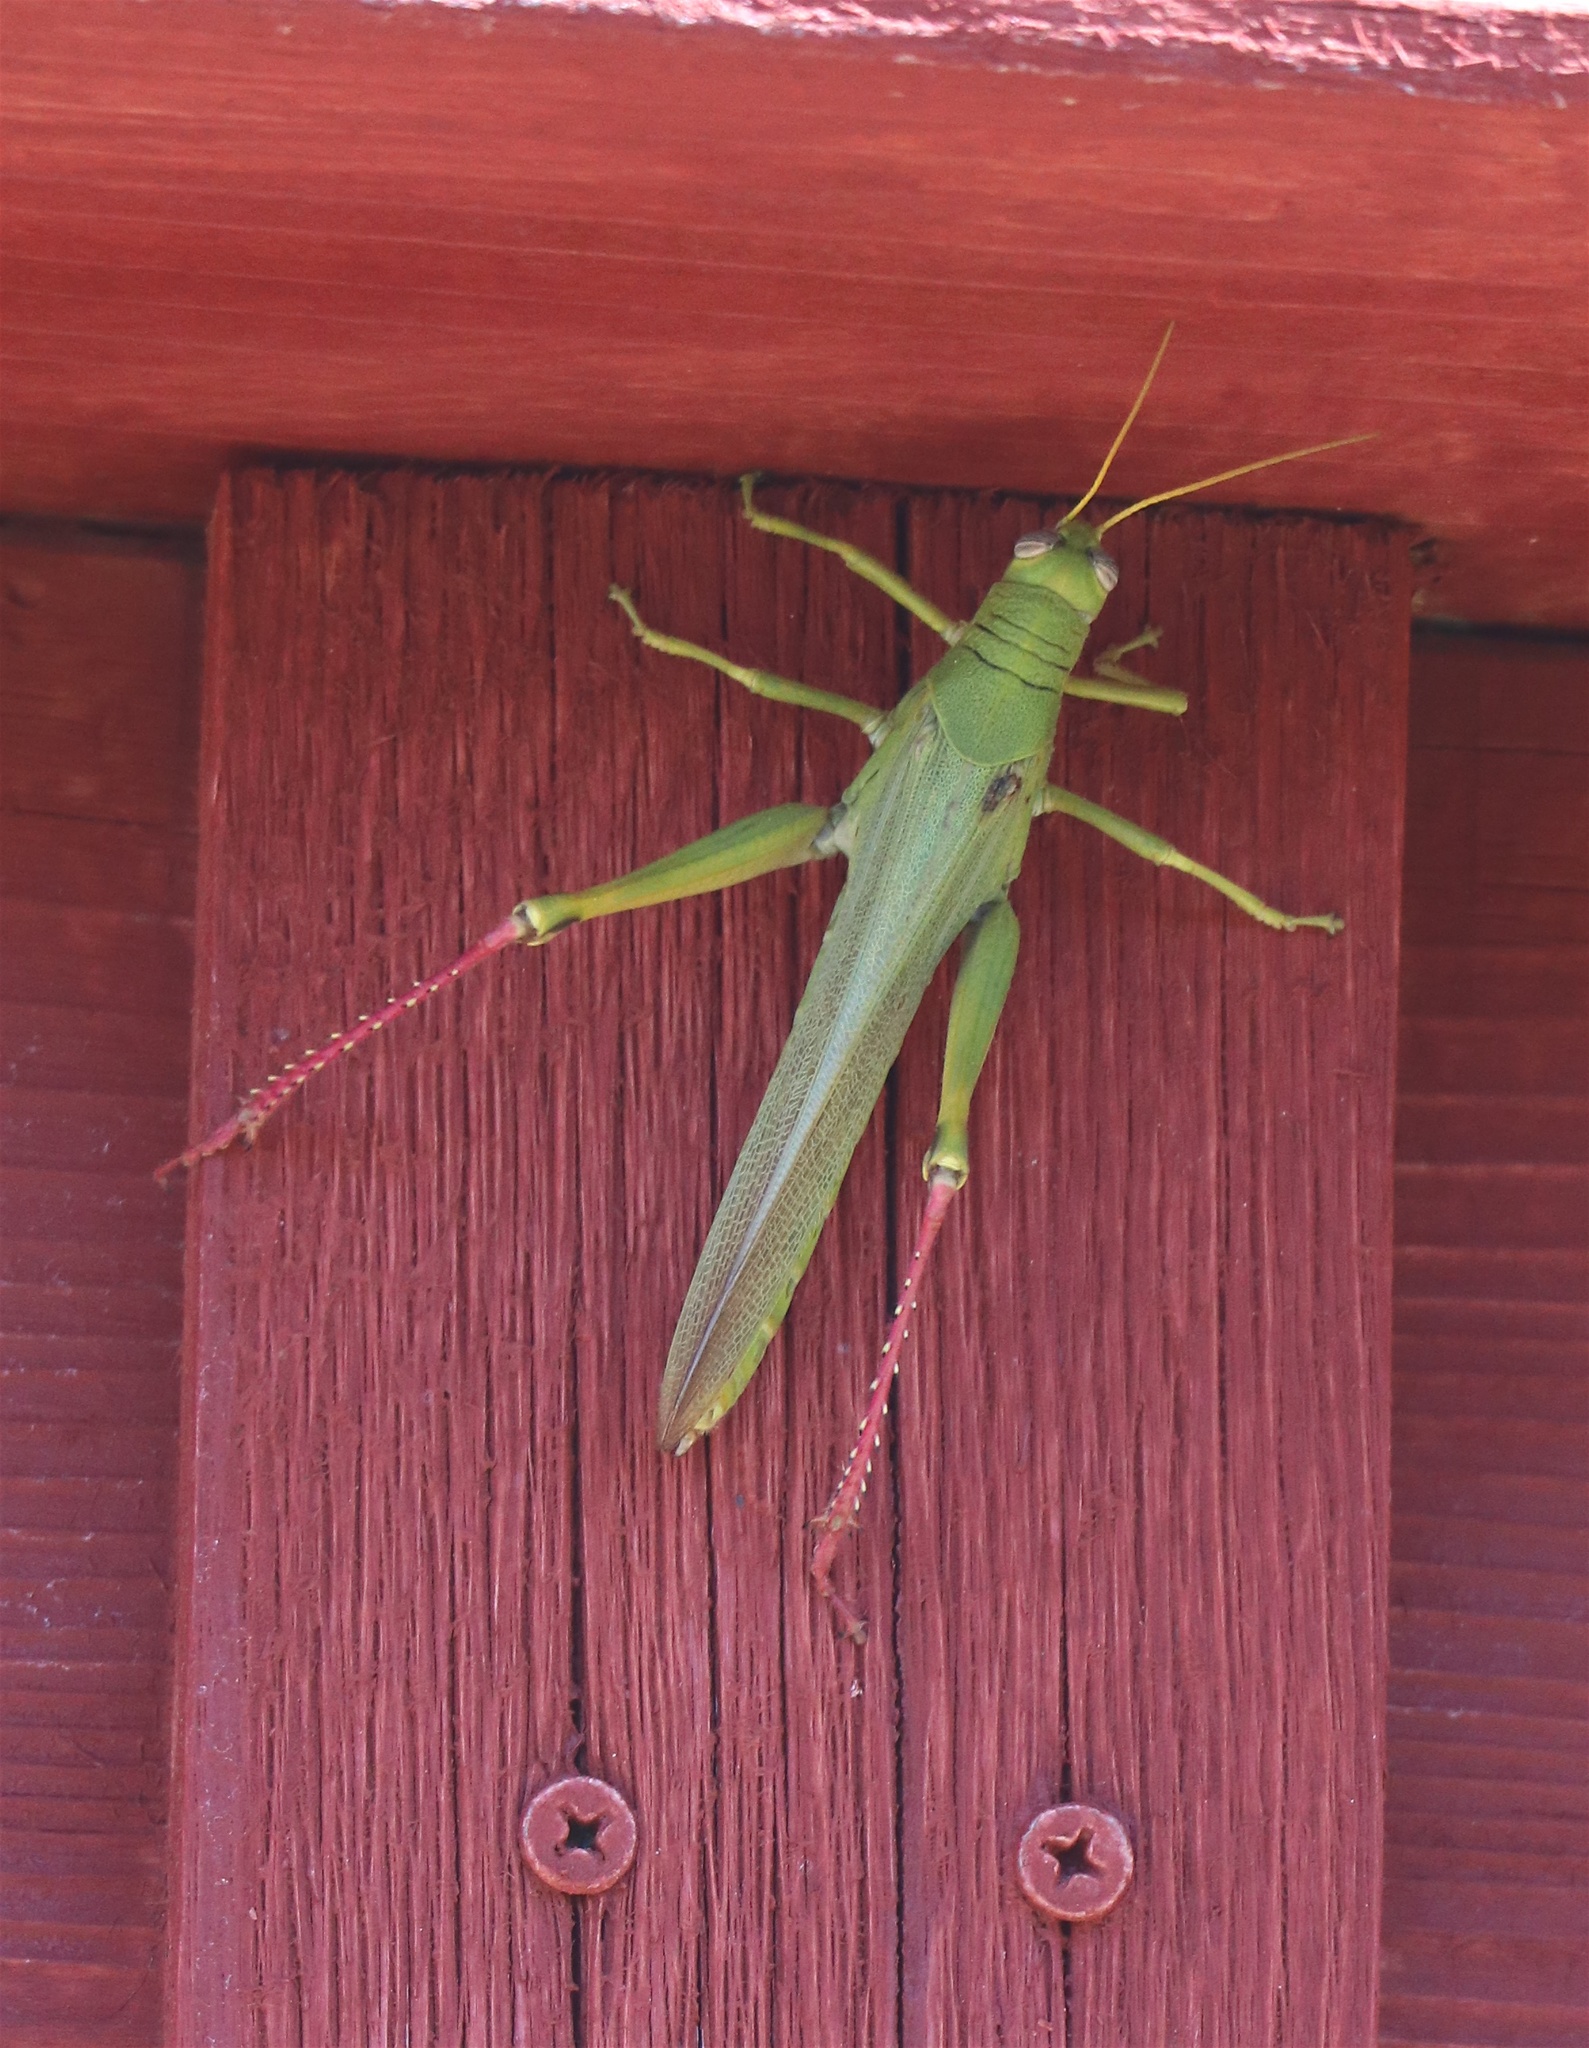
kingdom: Animalia
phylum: Arthropoda
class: Insecta
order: Orthoptera
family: Acrididae
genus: Schistocerca
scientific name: Schistocerca shoshone
